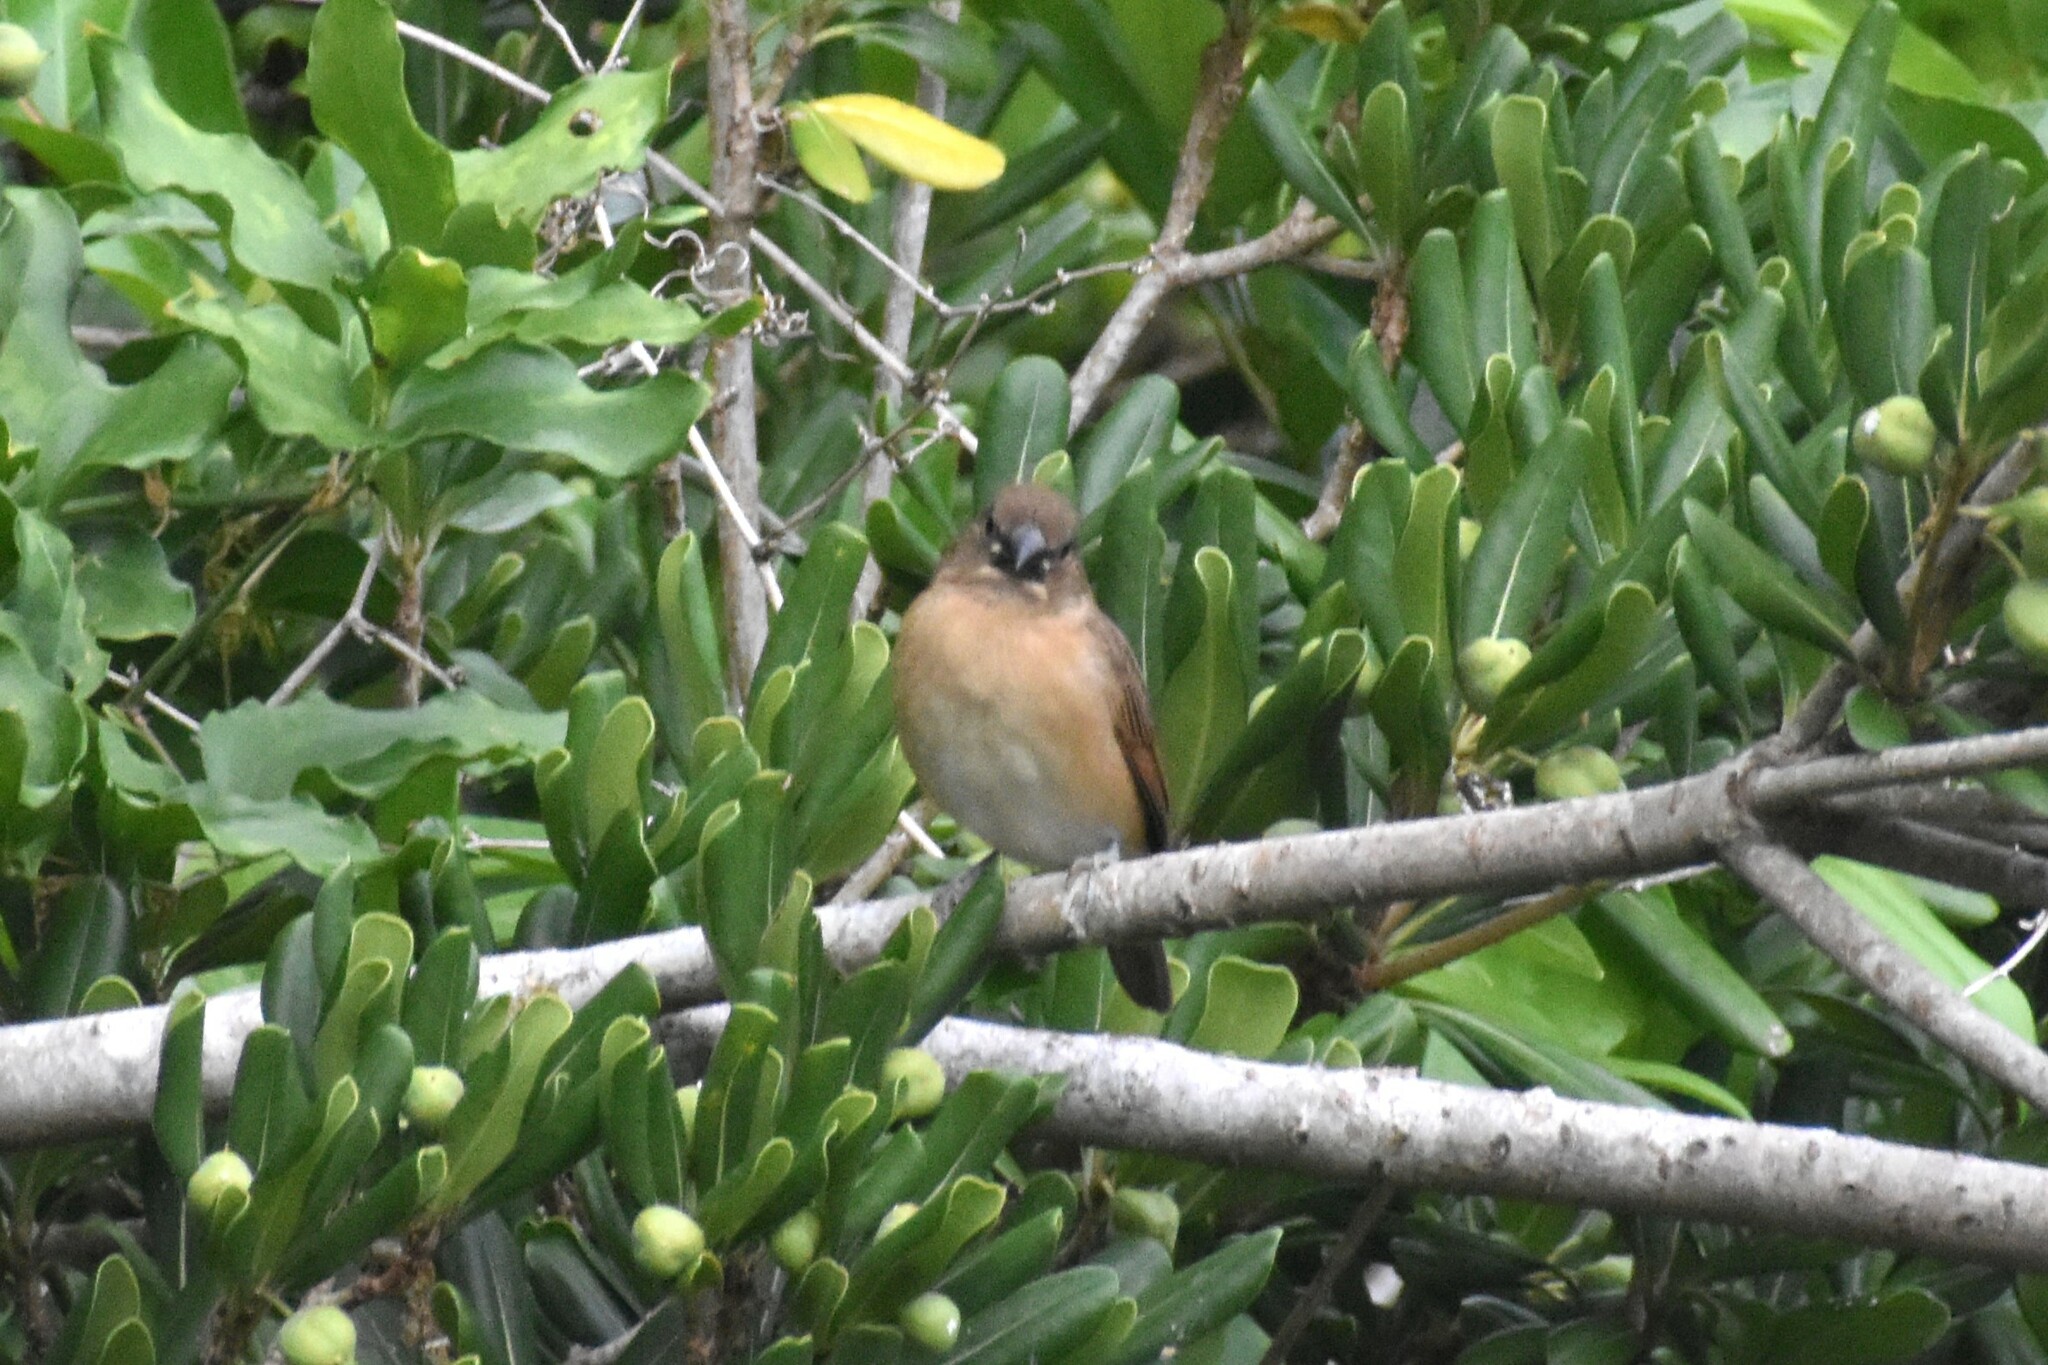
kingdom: Animalia
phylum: Chordata
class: Aves
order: Passeriformes
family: Estrildidae
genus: Lonchura
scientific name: Lonchura punctulata
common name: Scaly-breasted munia
